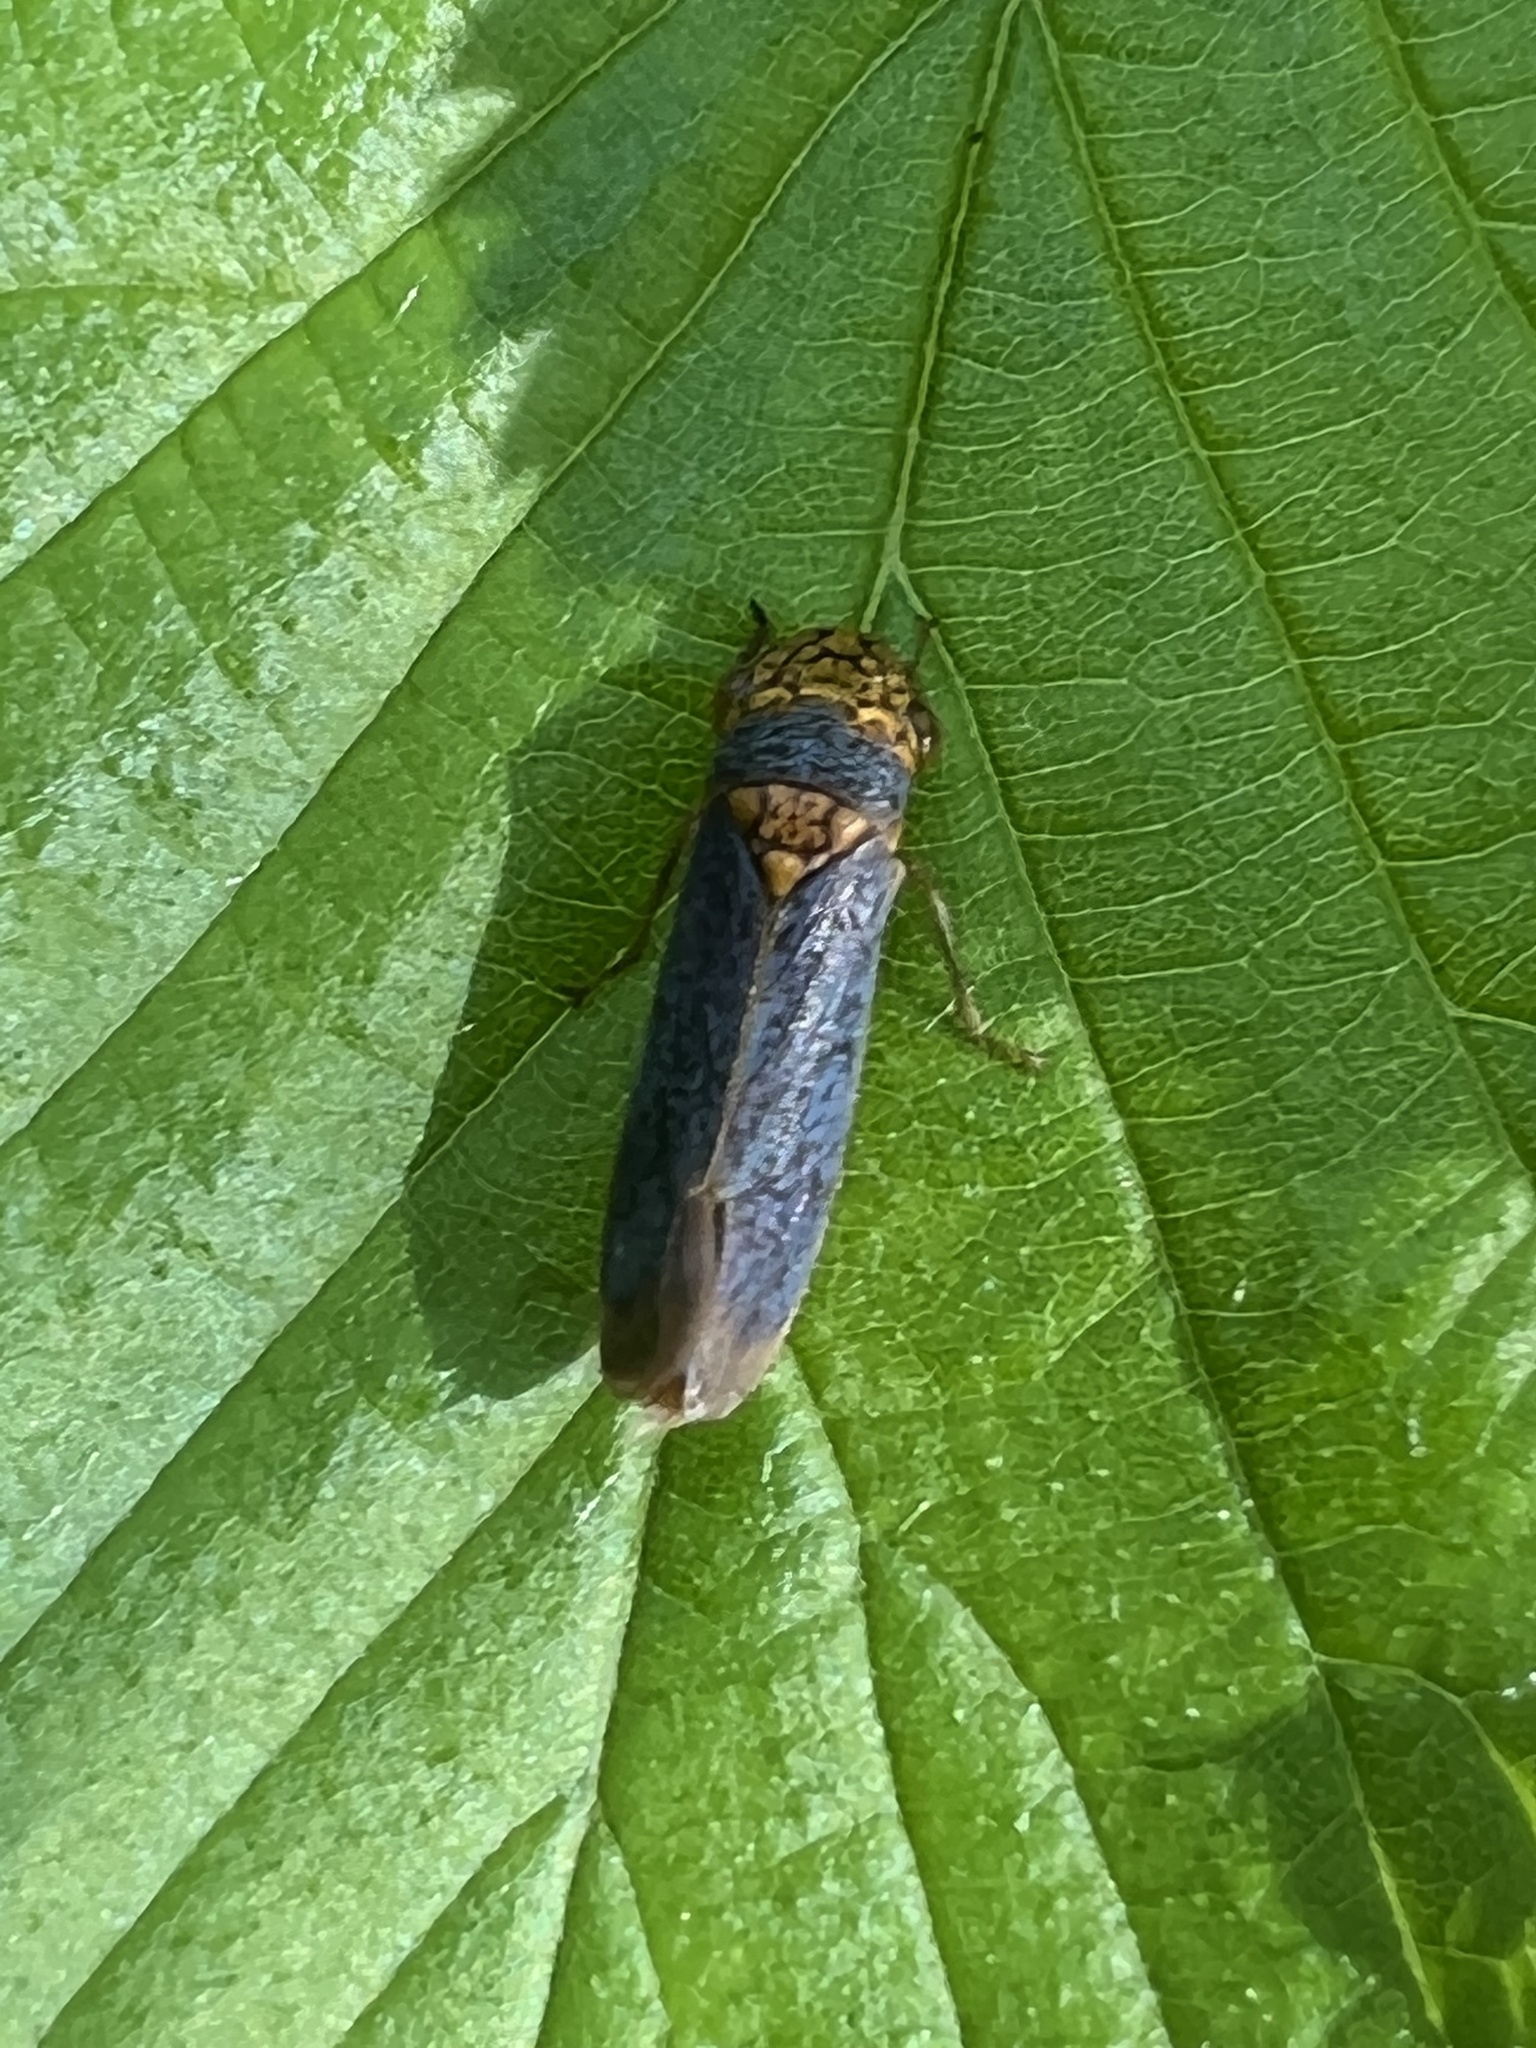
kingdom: Animalia
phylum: Arthropoda
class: Insecta
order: Hemiptera
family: Cicadellidae
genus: Oncometopia
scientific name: Oncometopia orbona
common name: Broad-headed sharpshooter
